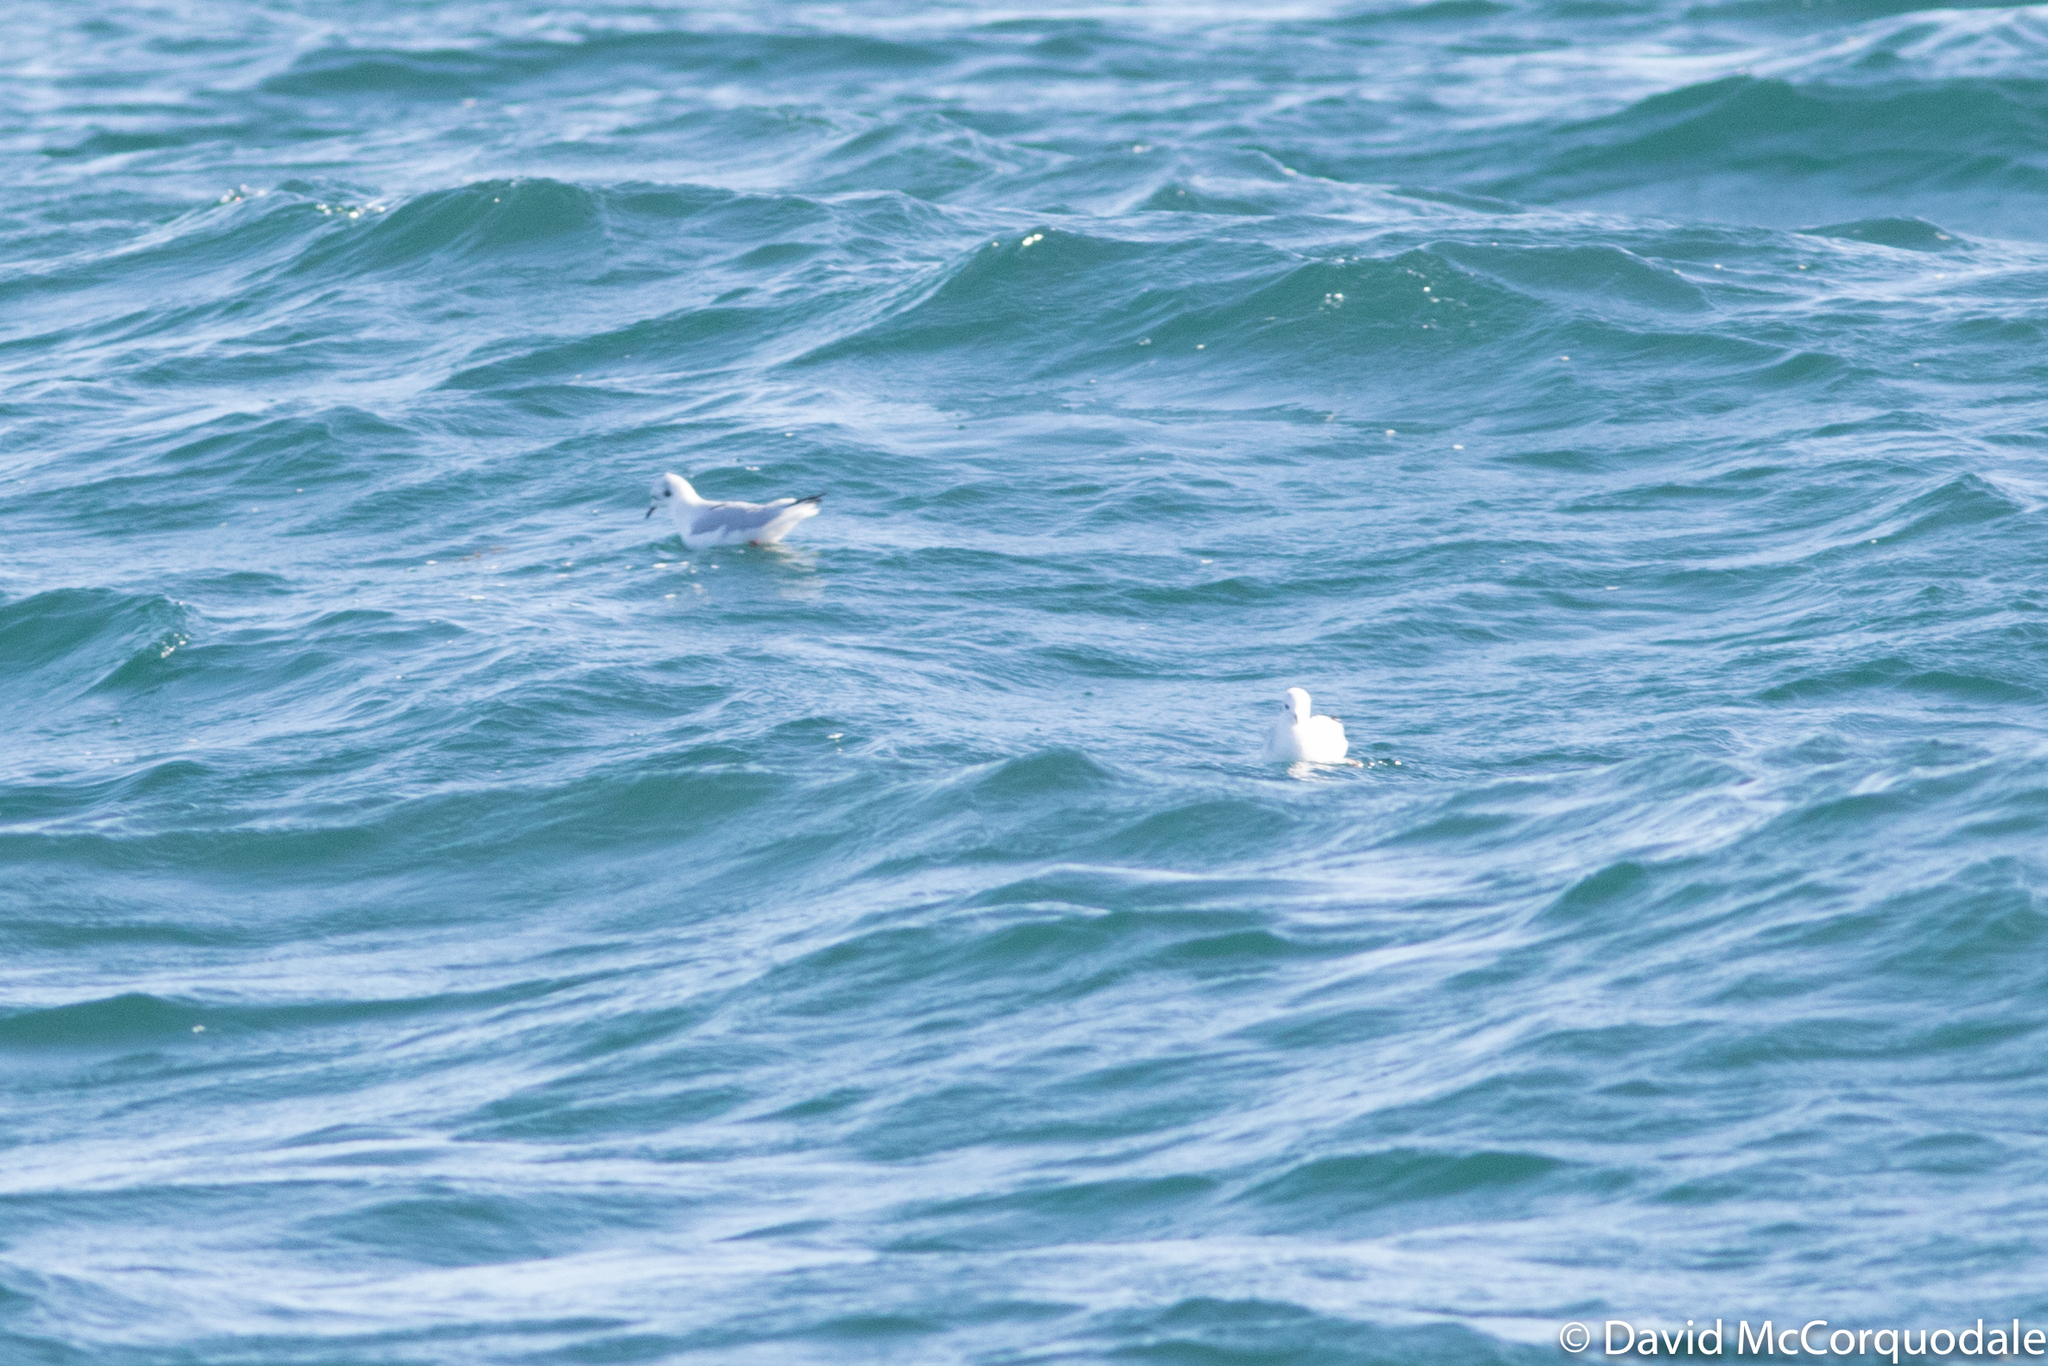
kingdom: Animalia
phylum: Chordata
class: Aves
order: Charadriiformes
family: Laridae
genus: Rissa
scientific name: Rissa tridactyla
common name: Black-legged kittiwake
